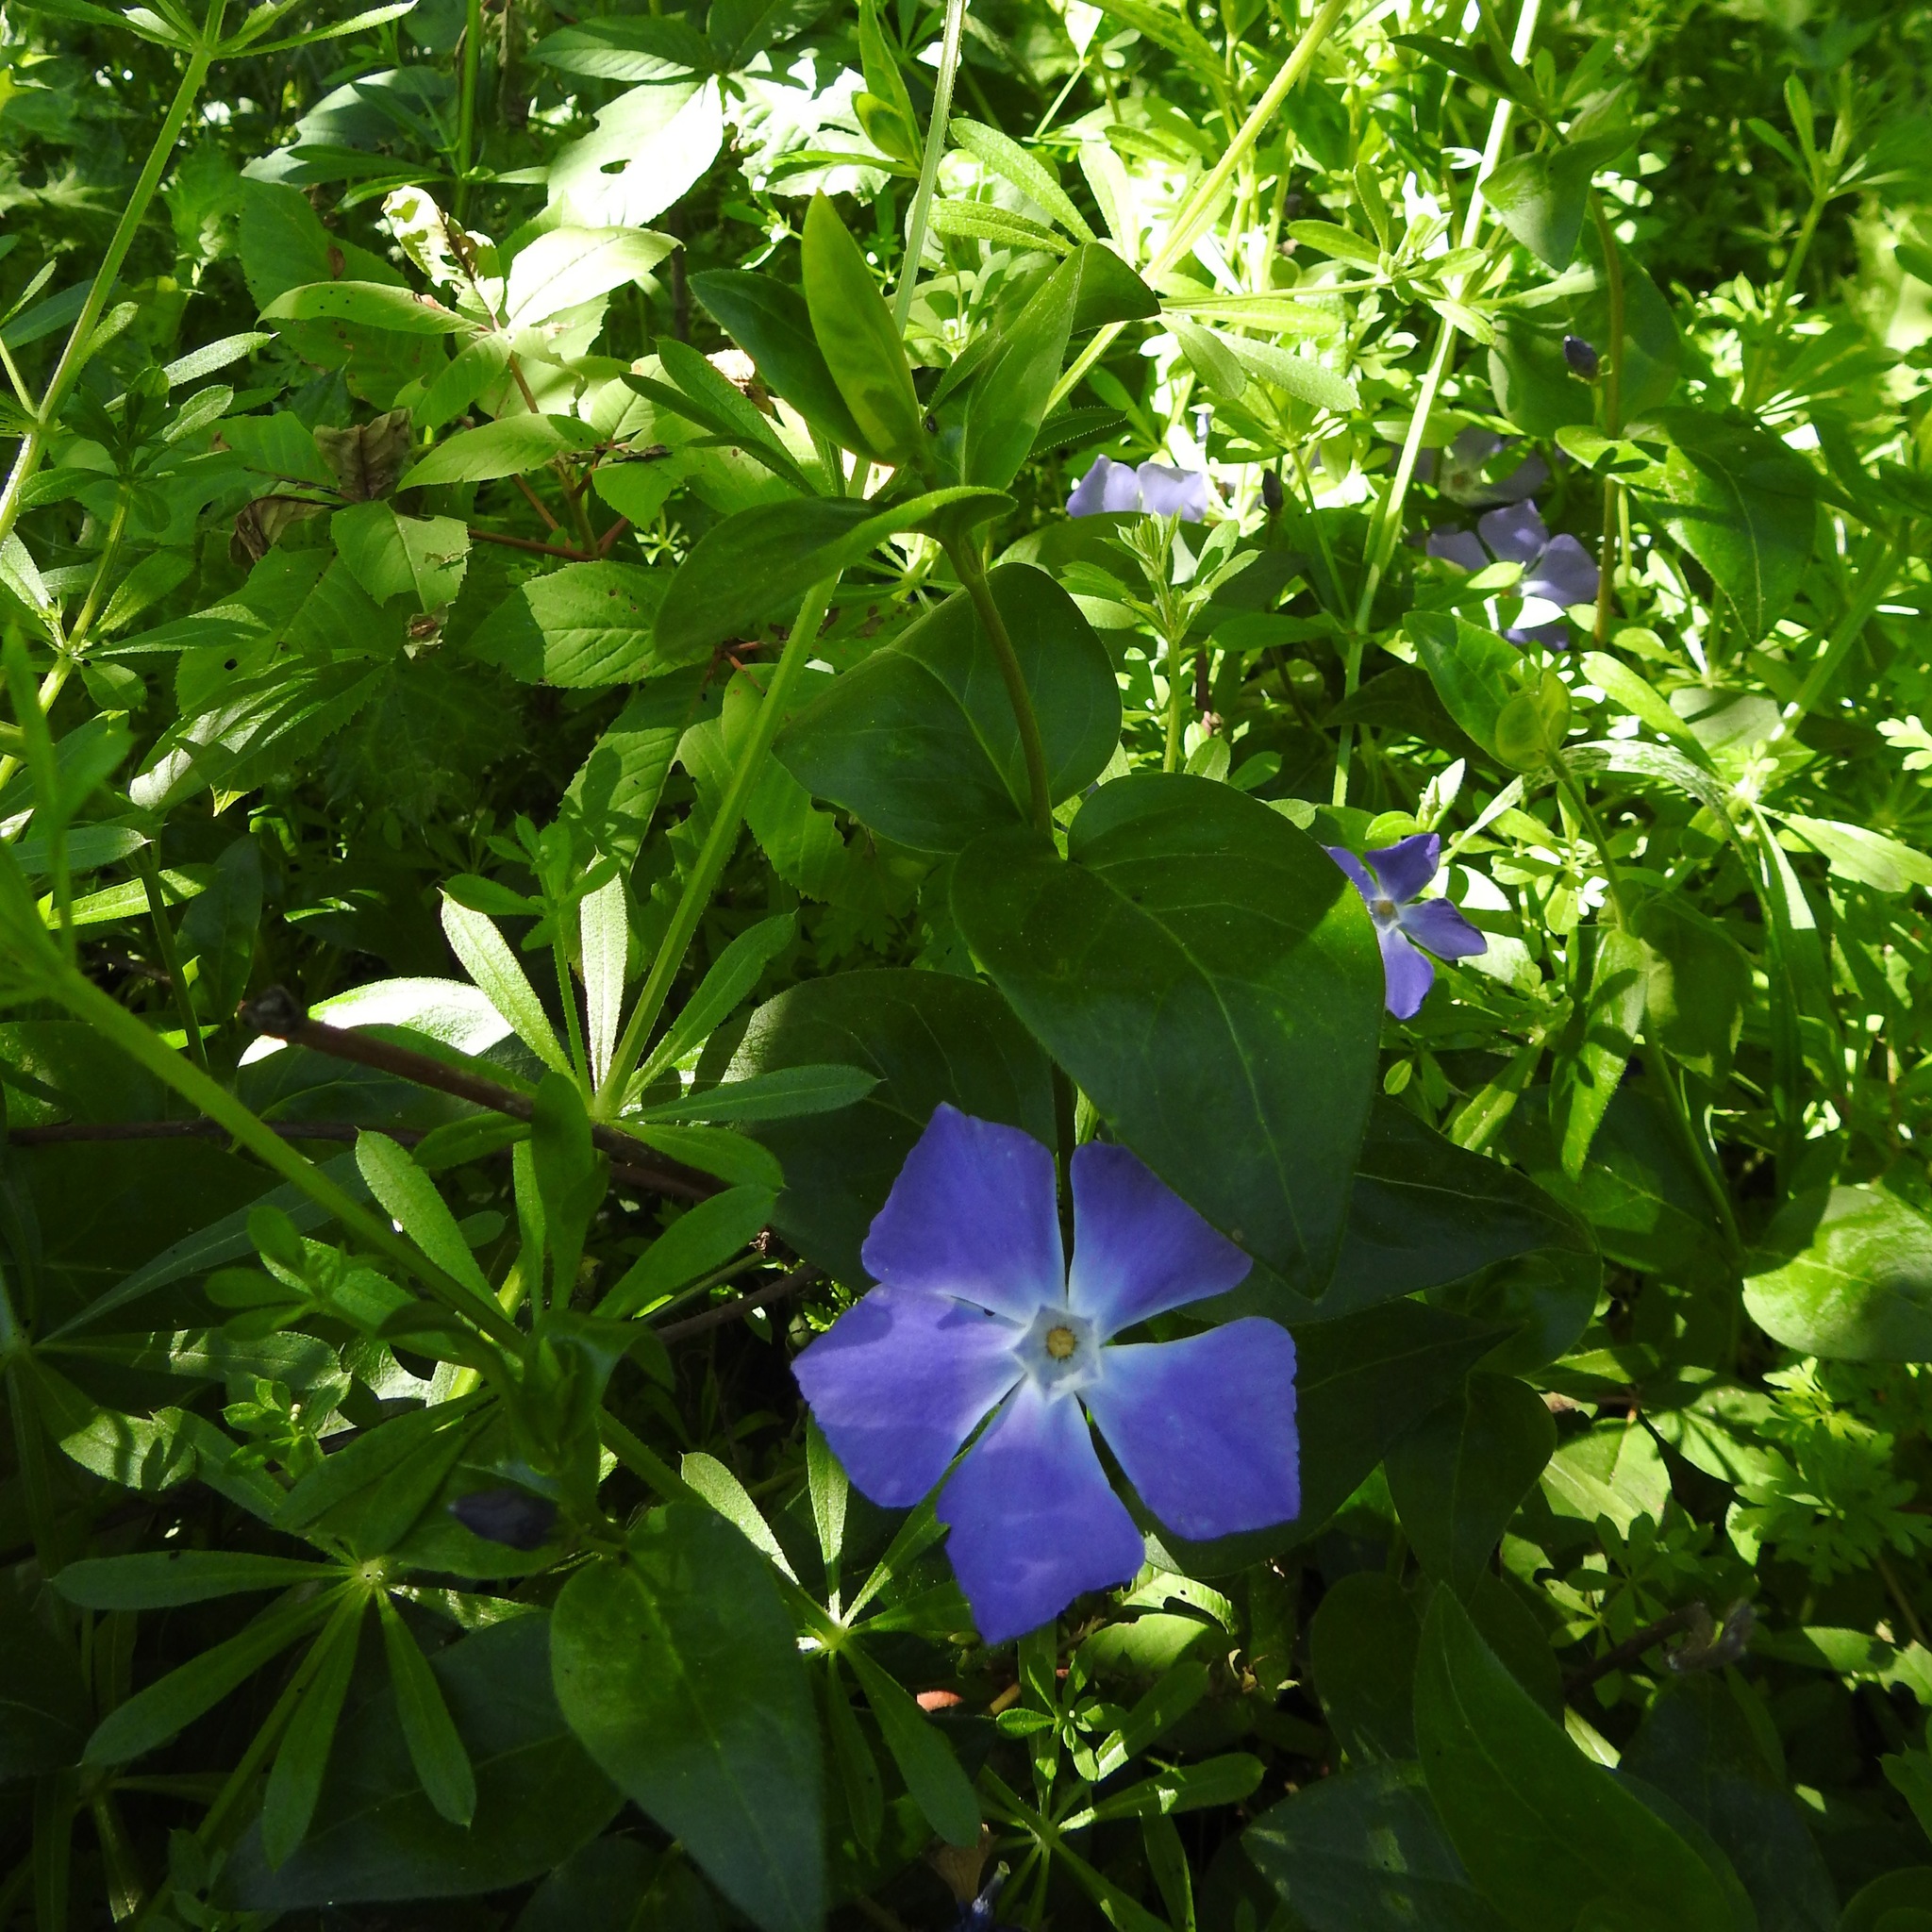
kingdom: Plantae
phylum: Tracheophyta
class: Magnoliopsida
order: Gentianales
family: Apocynaceae
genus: Vinca
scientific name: Vinca major
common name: Greater periwinkle
